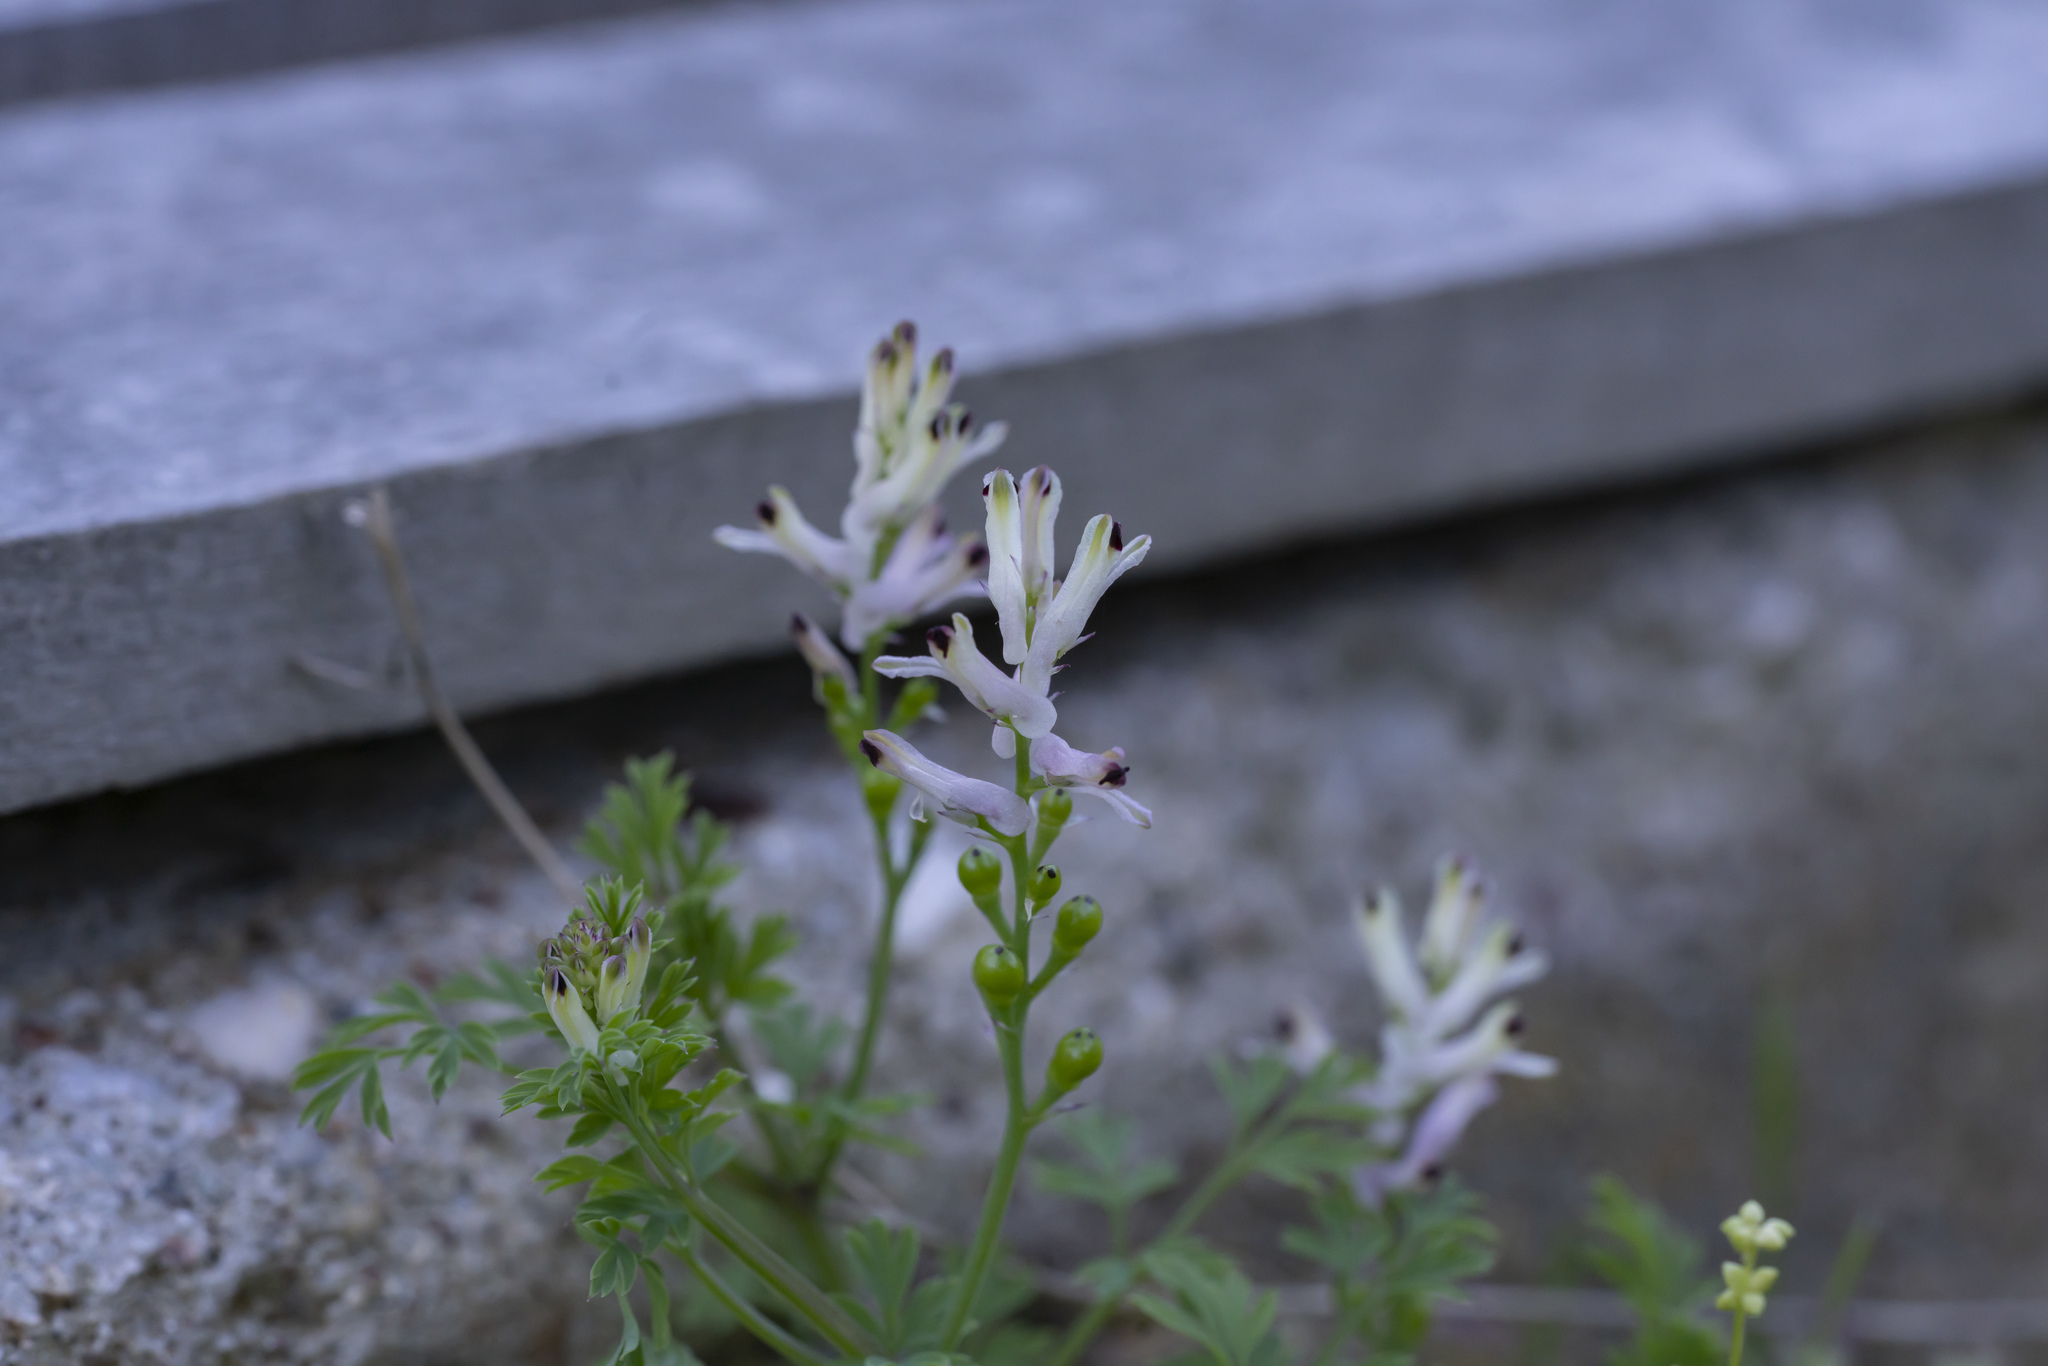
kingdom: Plantae
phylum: Tracheophyta
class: Magnoliopsida
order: Ranunculales
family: Papaveraceae
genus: Fumaria
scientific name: Fumaria judaica
